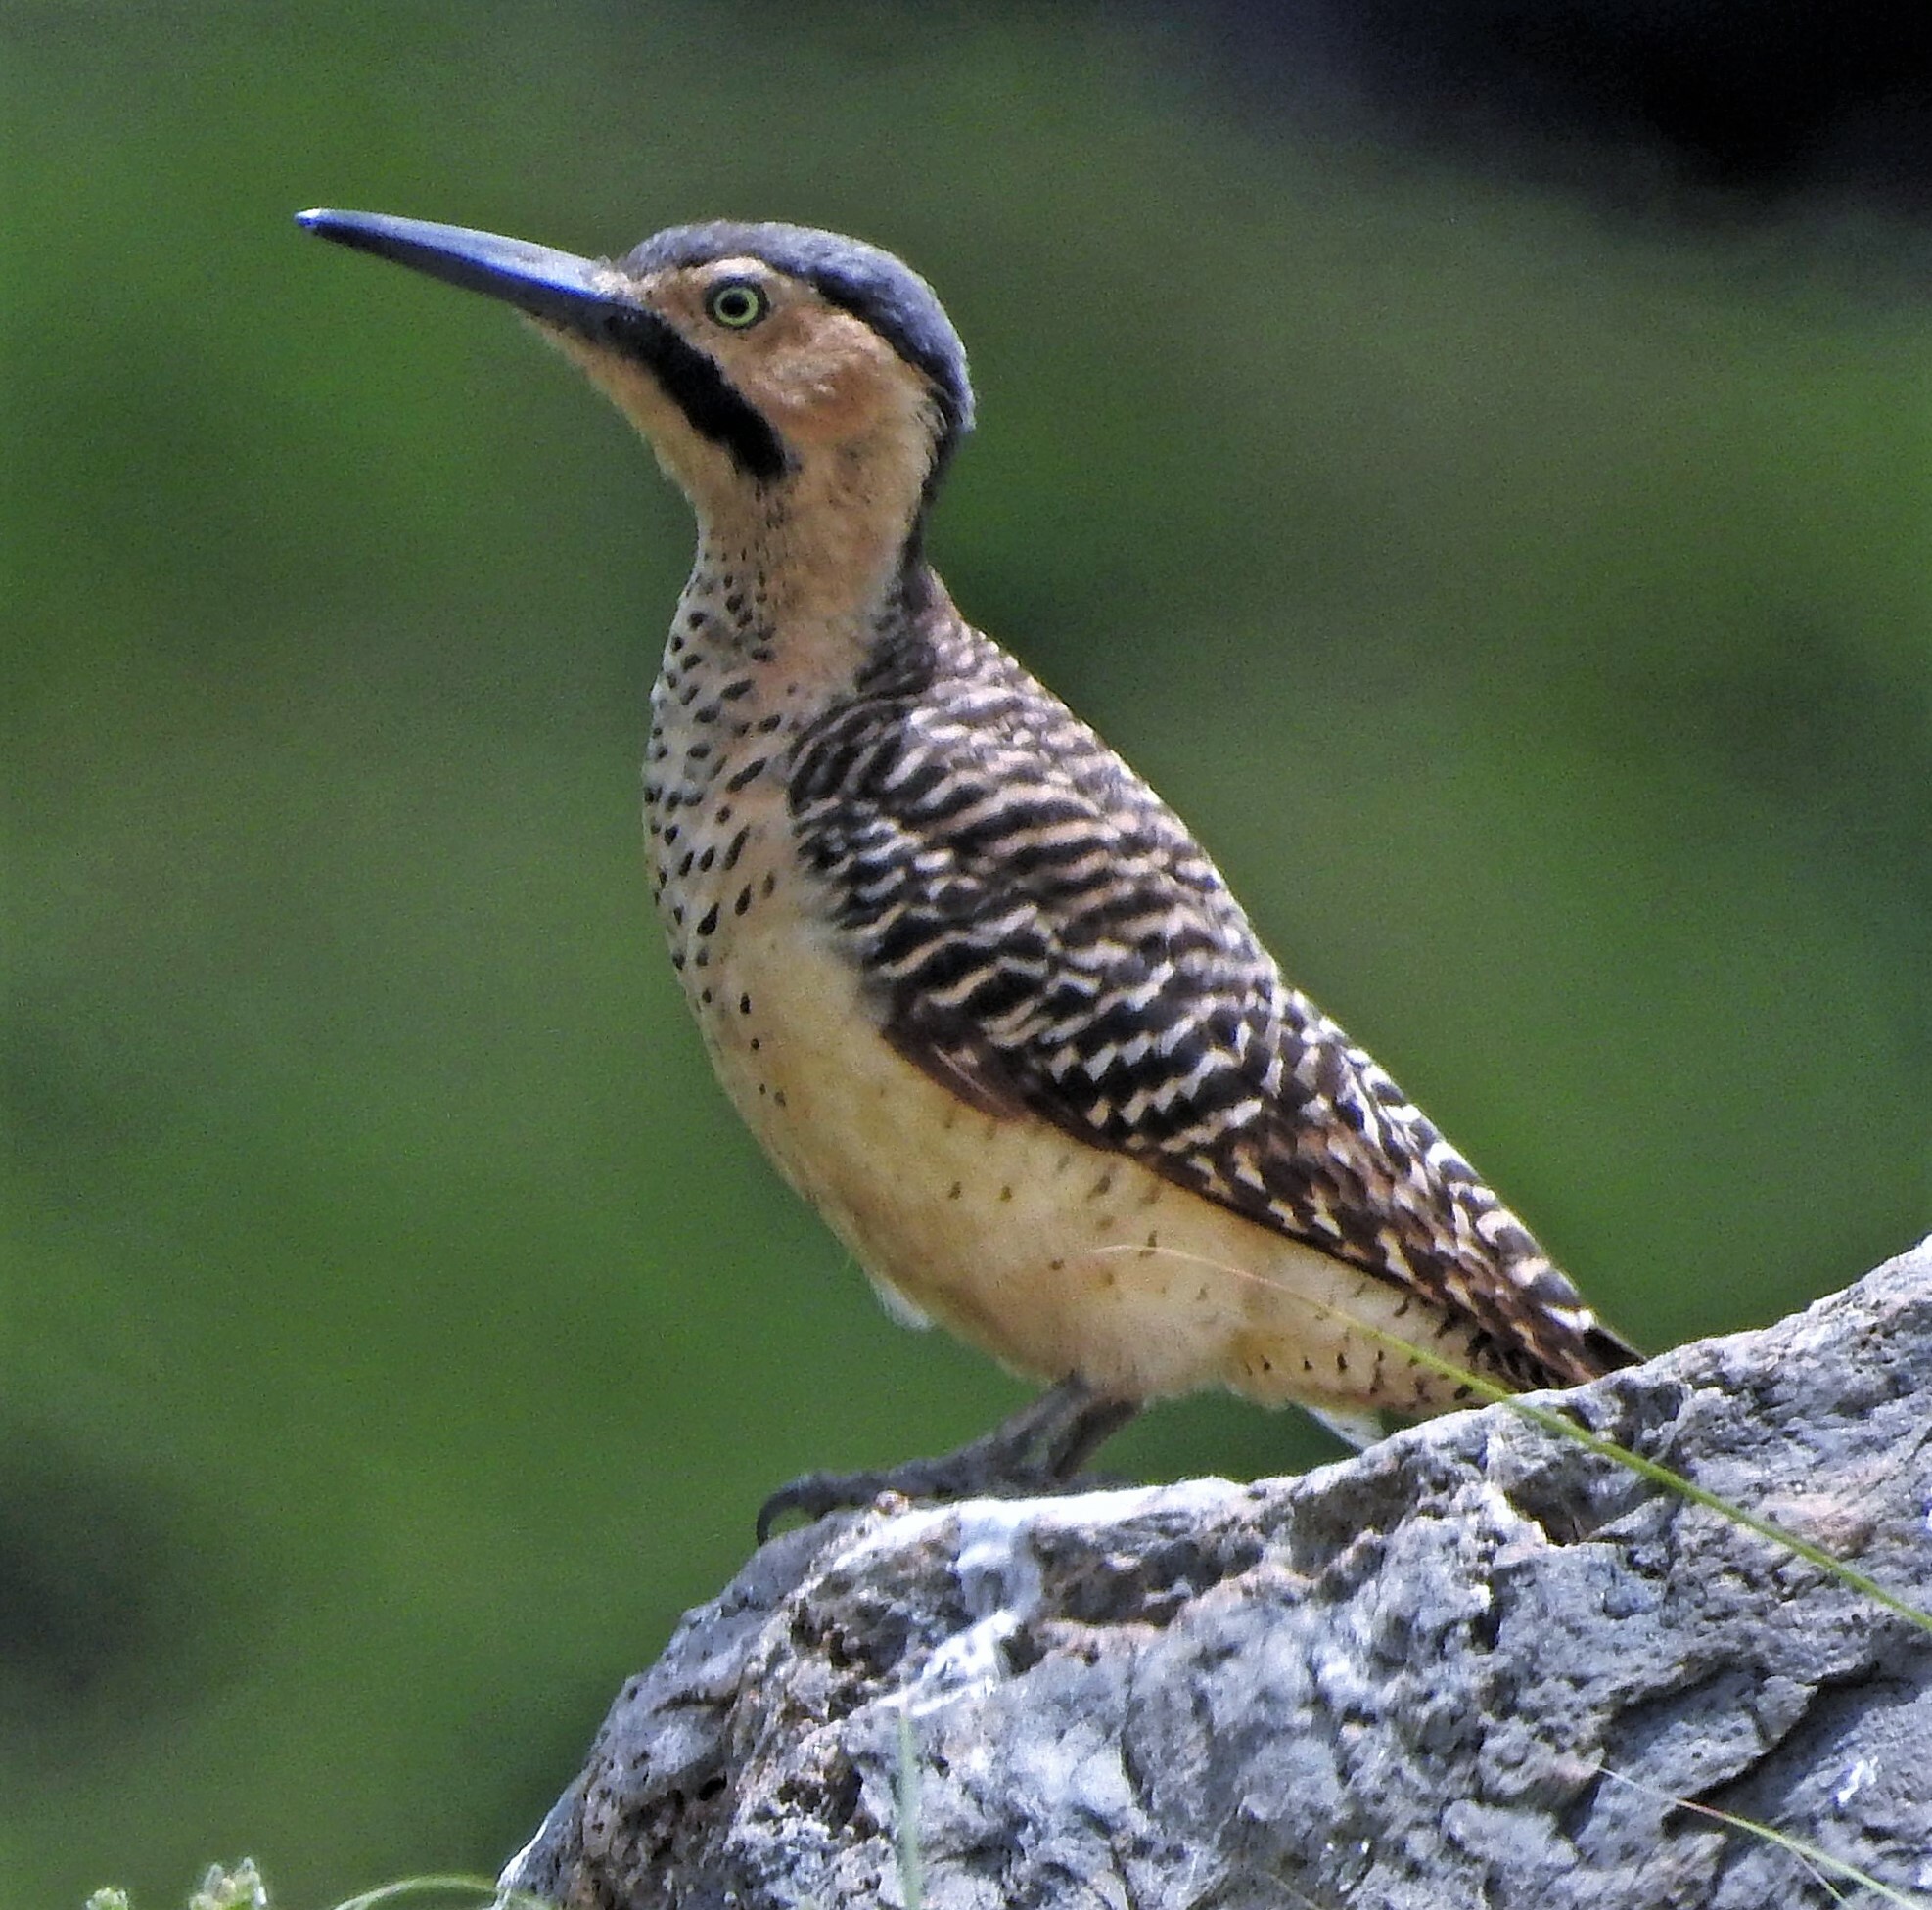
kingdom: Animalia
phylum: Chordata
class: Aves
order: Piciformes
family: Picidae
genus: Colaptes
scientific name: Colaptes rupicola
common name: Andean flicker
